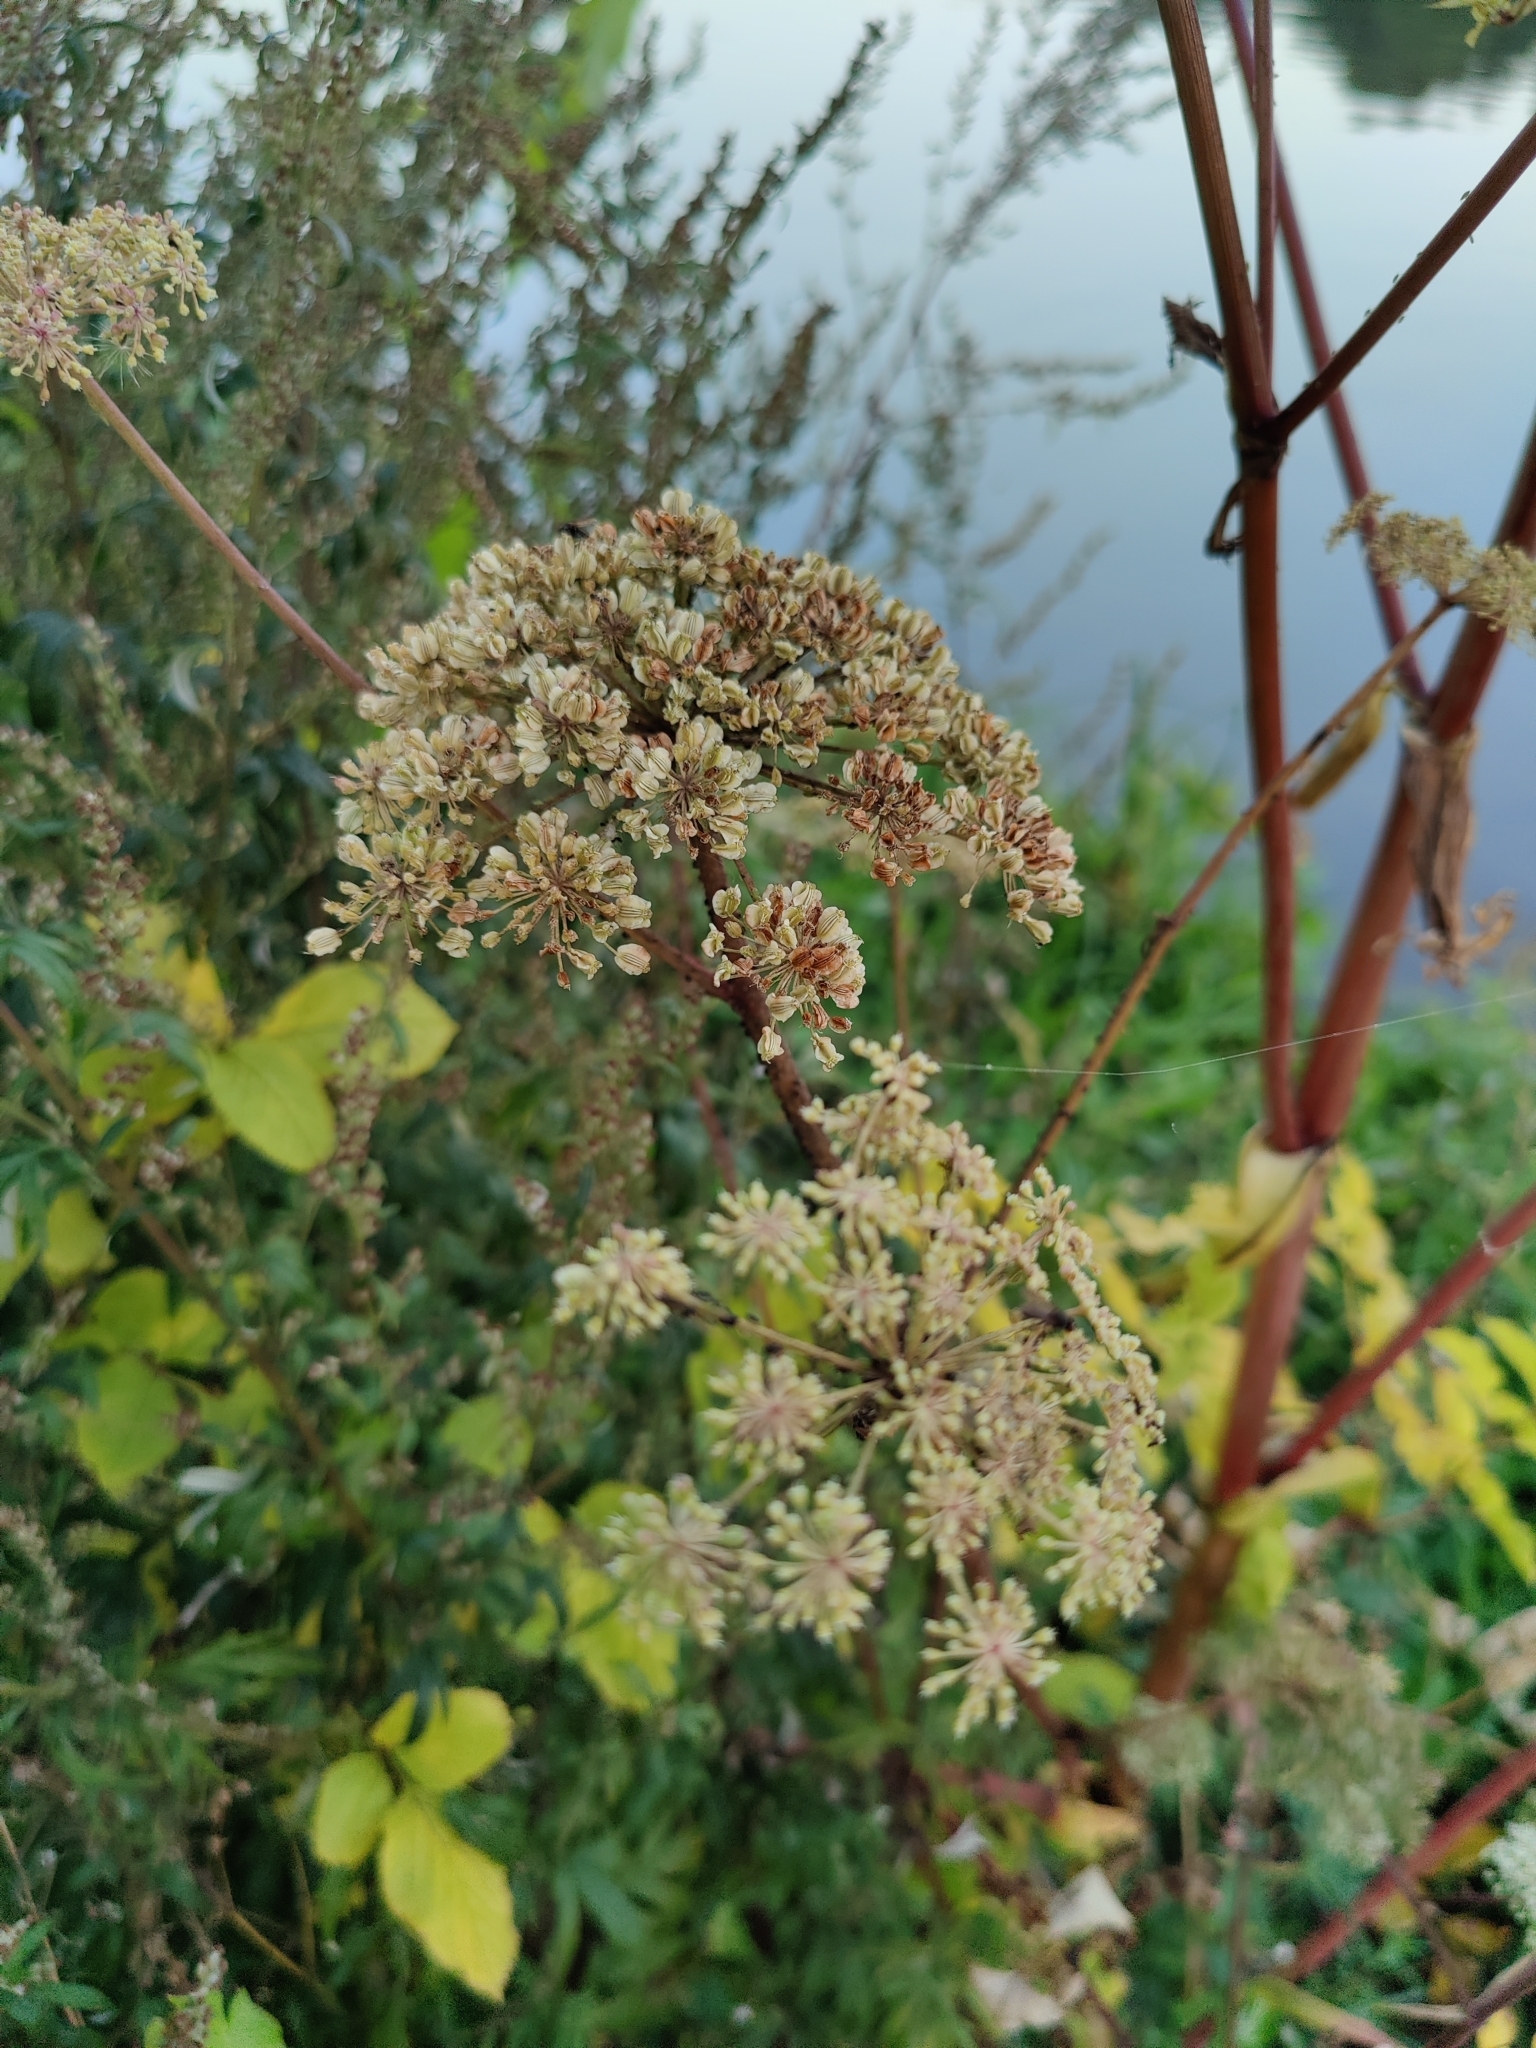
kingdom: Plantae
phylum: Tracheophyta
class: Magnoliopsida
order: Apiales
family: Apiaceae
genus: Angelica
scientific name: Angelica sylvestris
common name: Wild angelica
